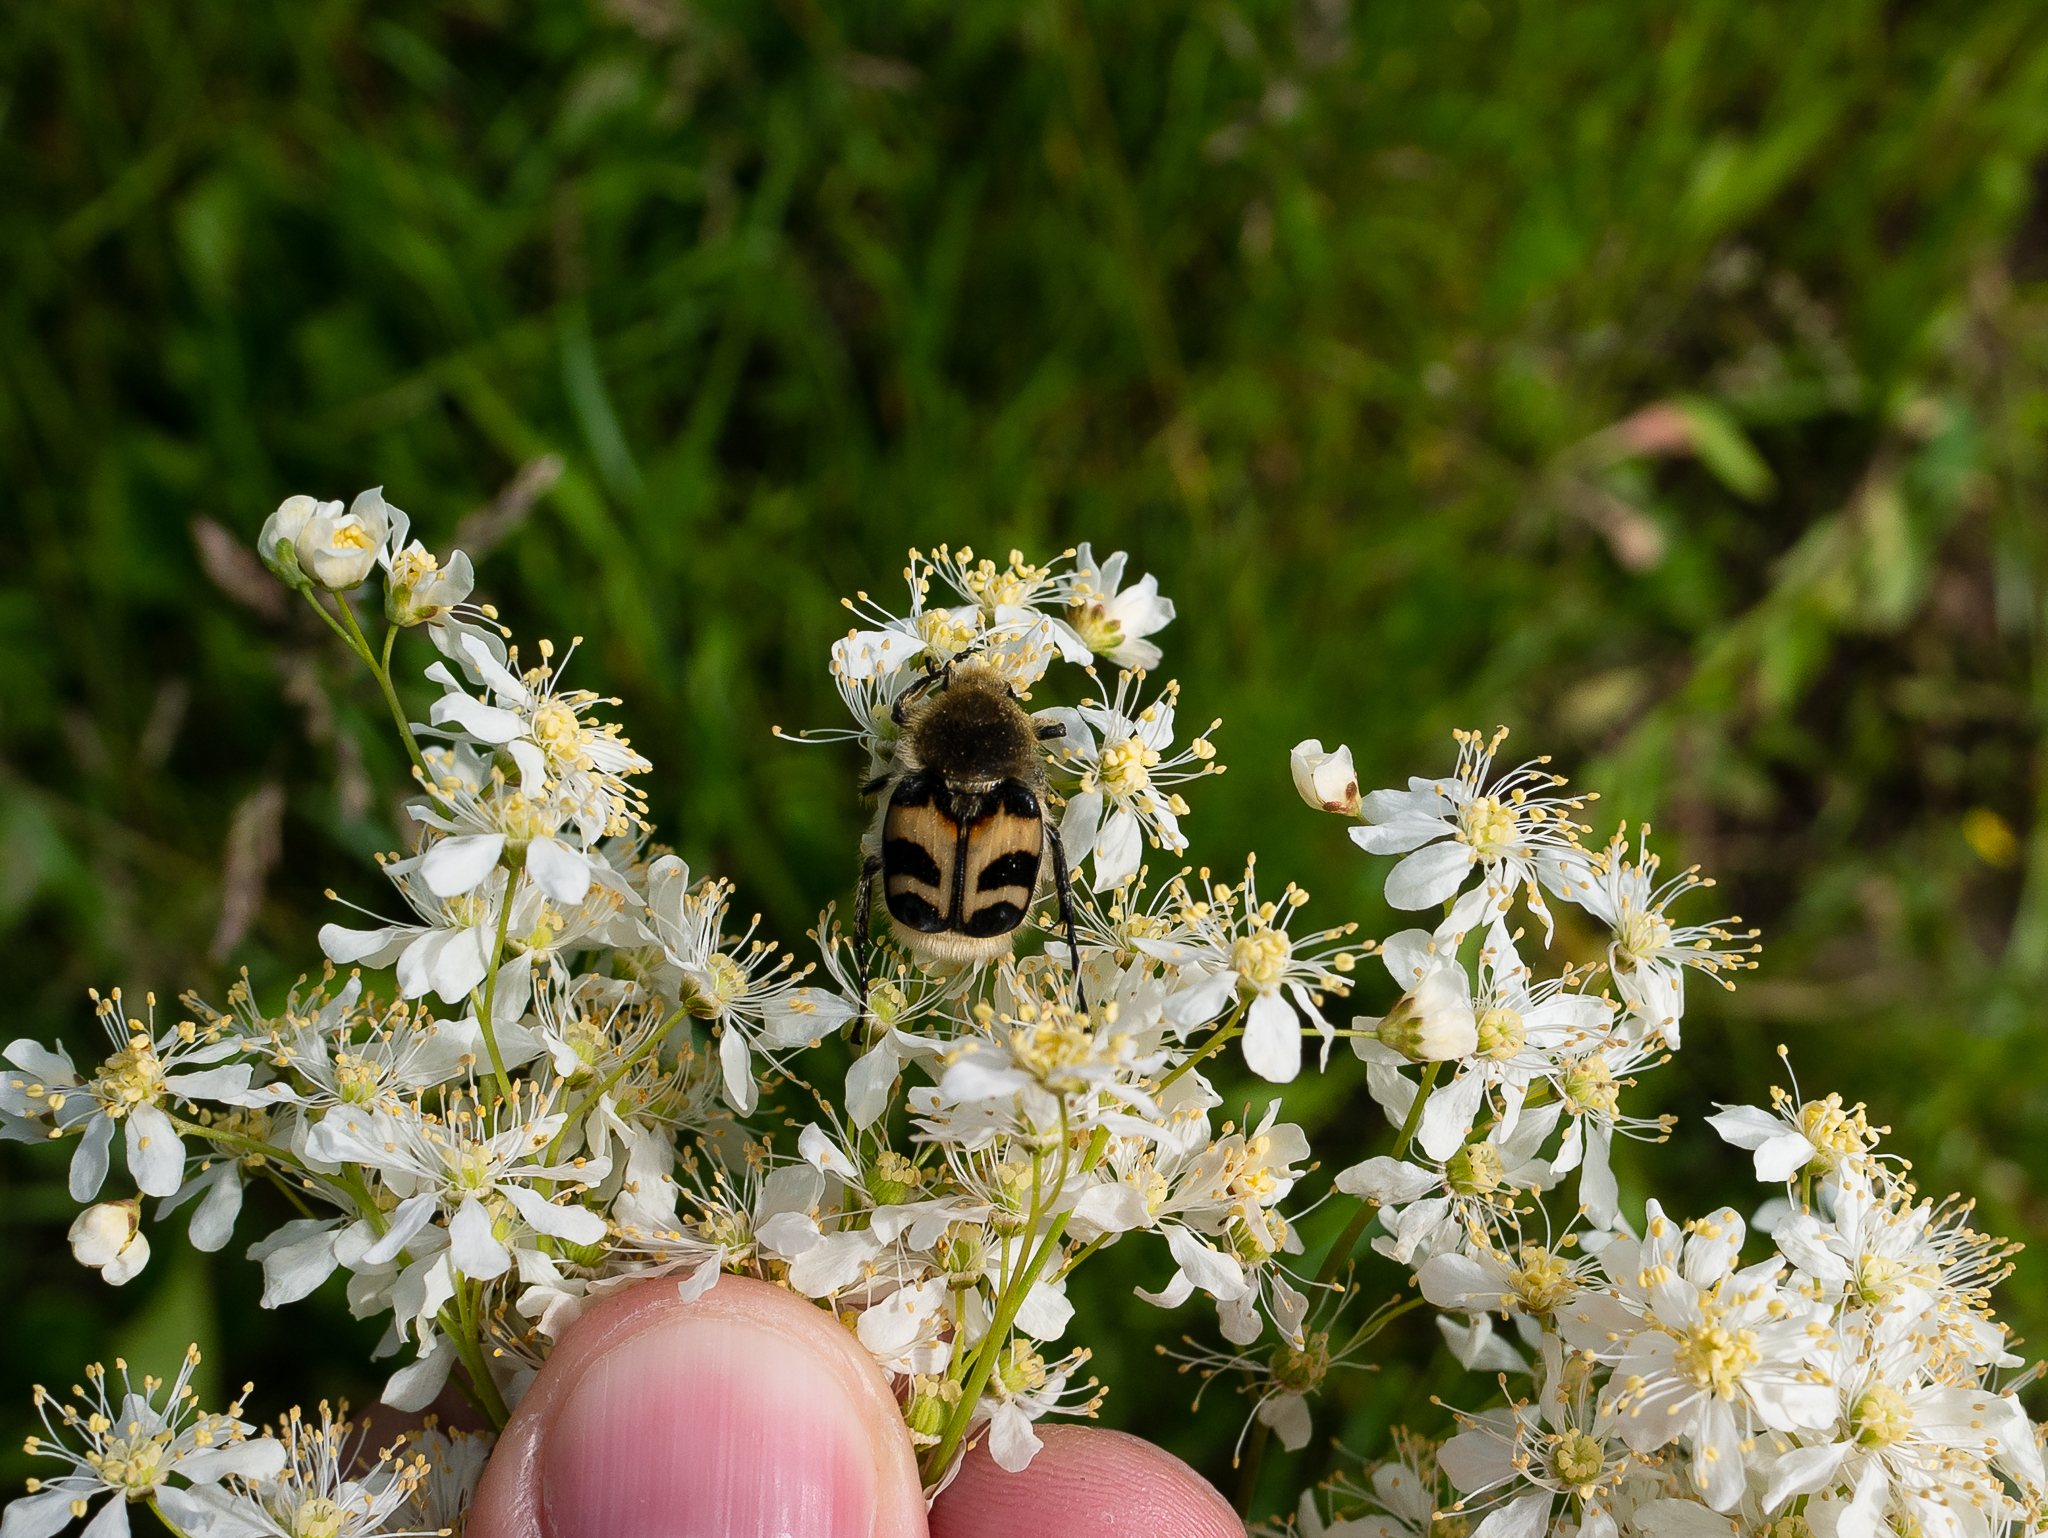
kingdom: Animalia
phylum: Arthropoda
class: Insecta
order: Coleoptera
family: Scarabaeidae
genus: Trichius
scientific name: Trichius fasciatus
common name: Bee beetle
